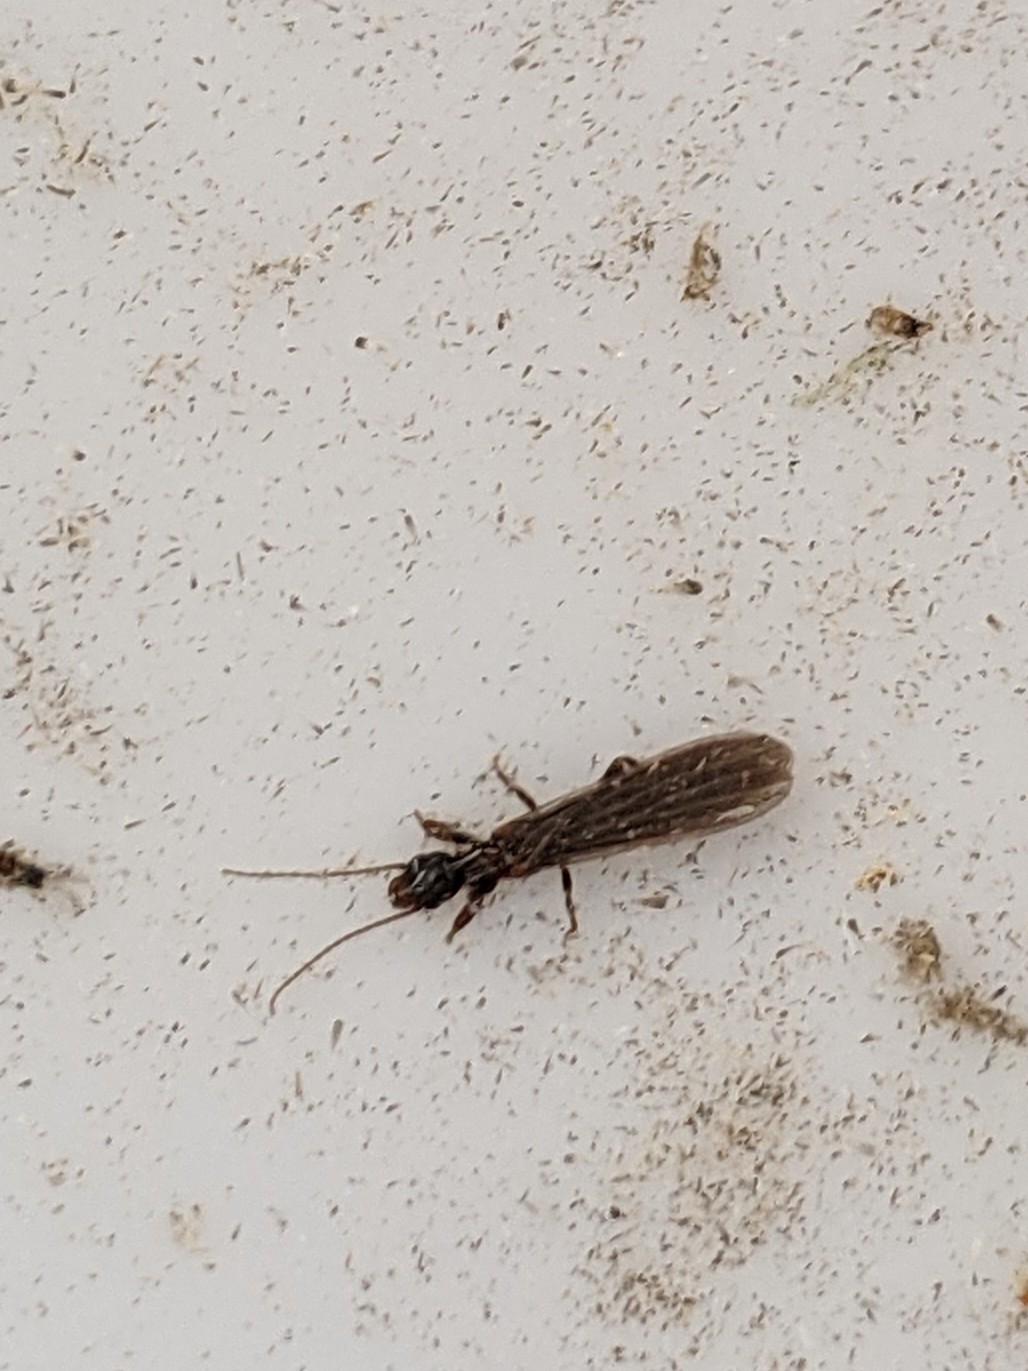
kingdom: Animalia
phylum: Arthropoda
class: Insecta
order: Embioptera
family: Oligotomidae
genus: Oligotoma
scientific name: Oligotoma nigra
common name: Black webspinner
